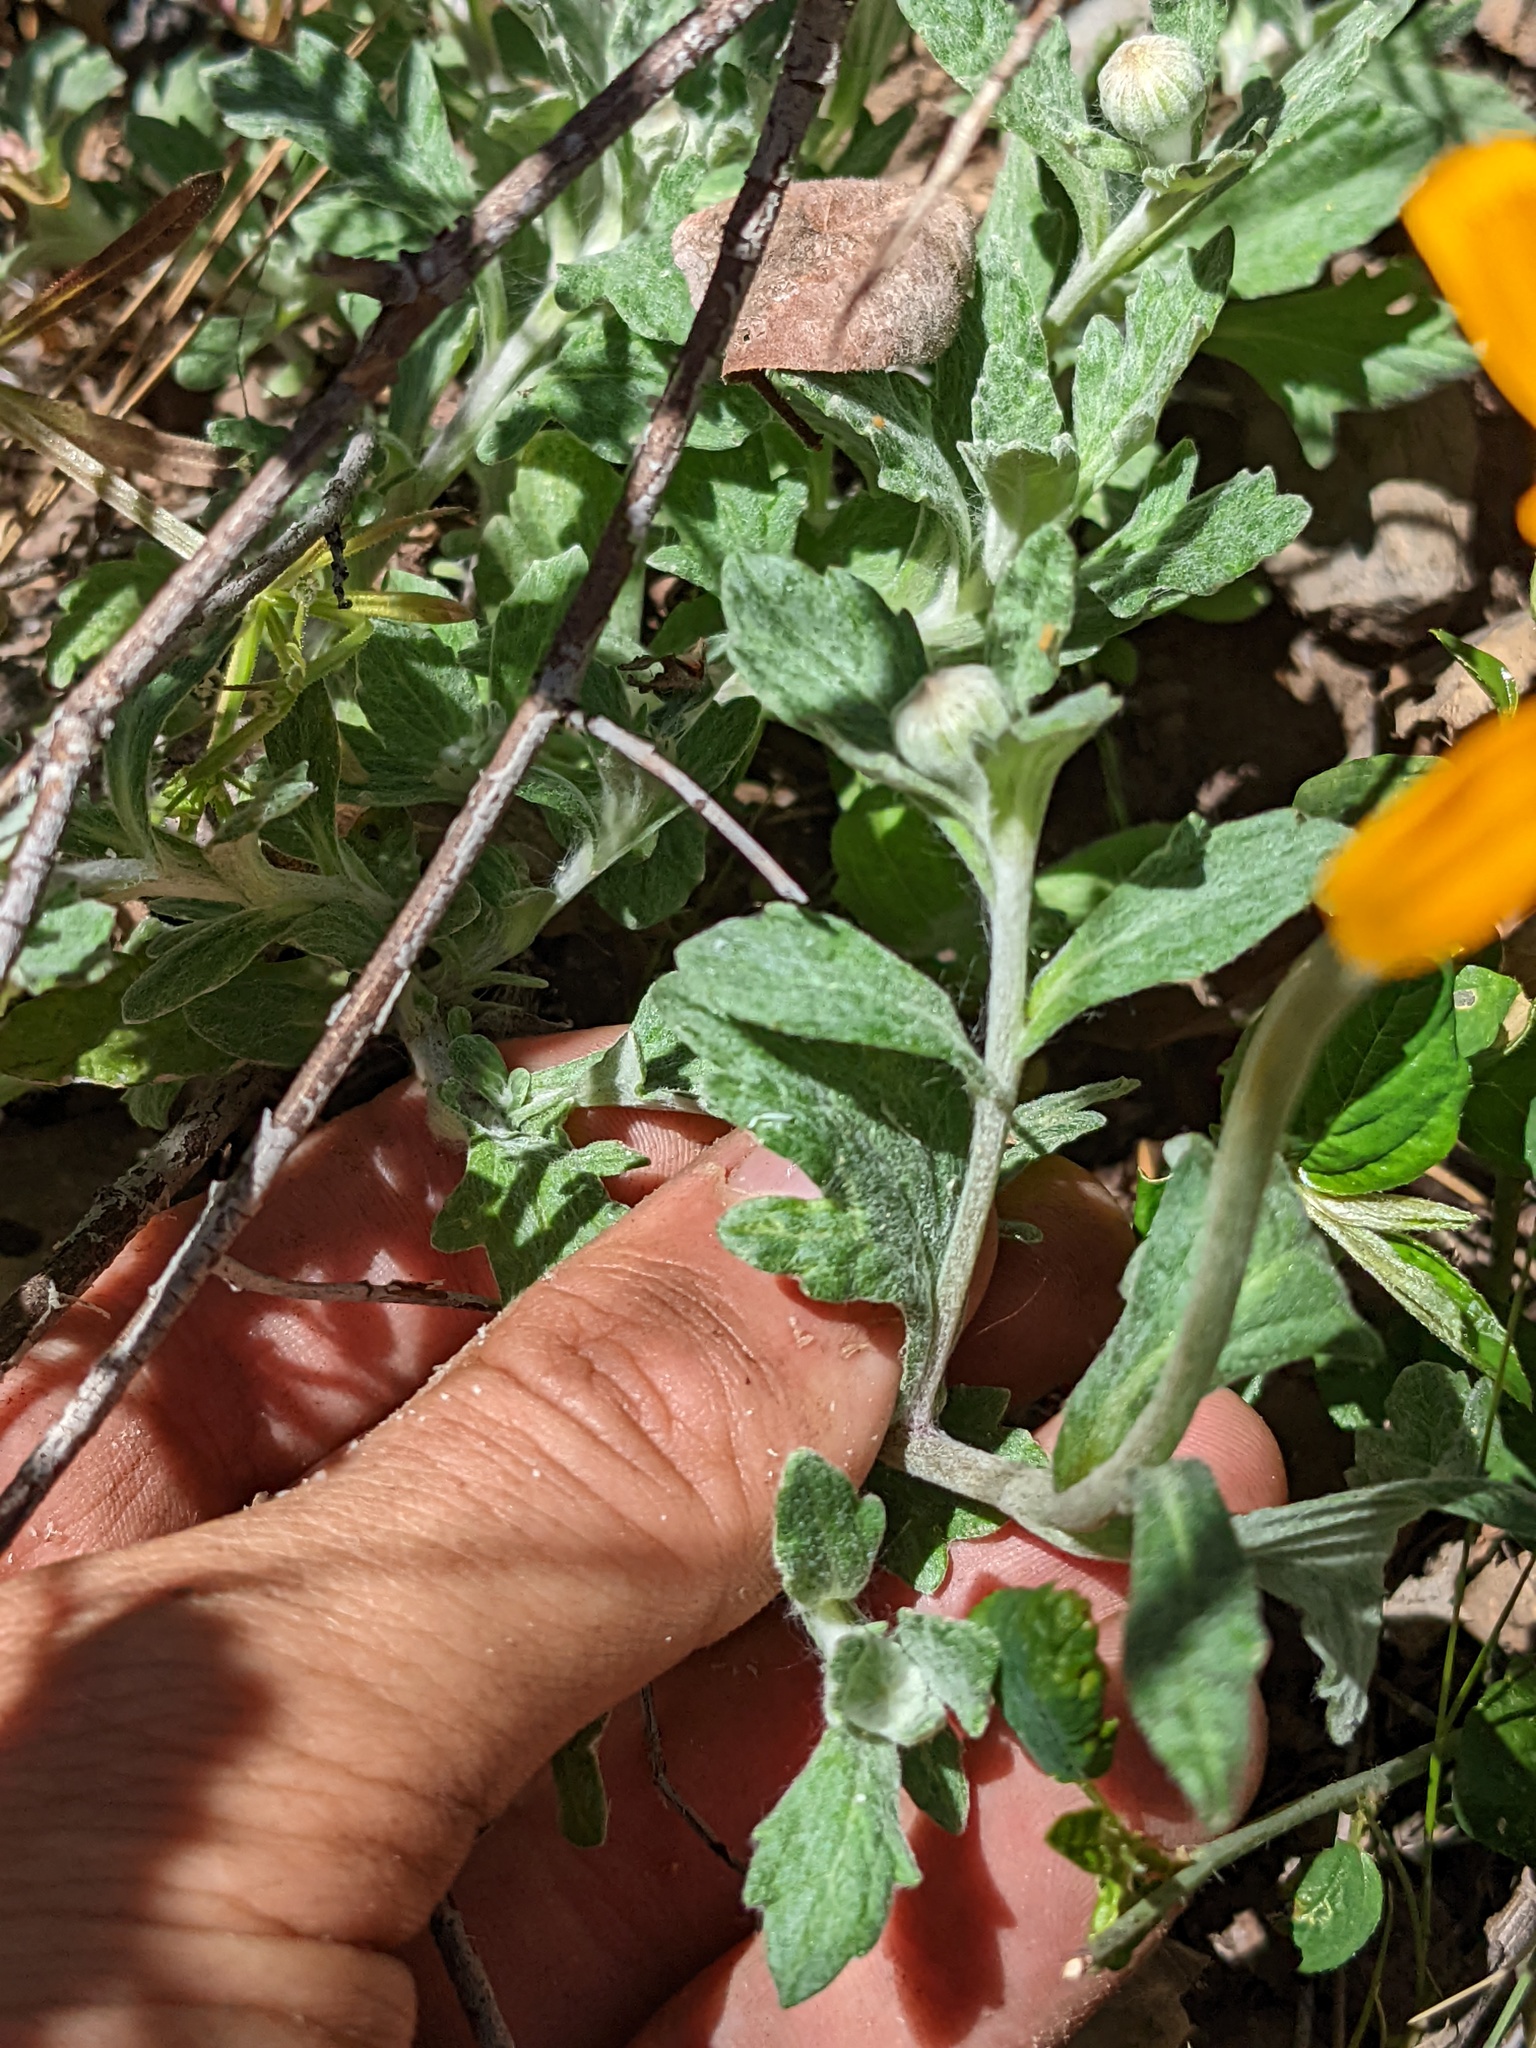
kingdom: Plantae
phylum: Tracheophyta
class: Magnoliopsida
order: Asterales
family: Asteraceae
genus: Eriophyllum
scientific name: Eriophyllum lanatum
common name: Common woolly-sunflower
